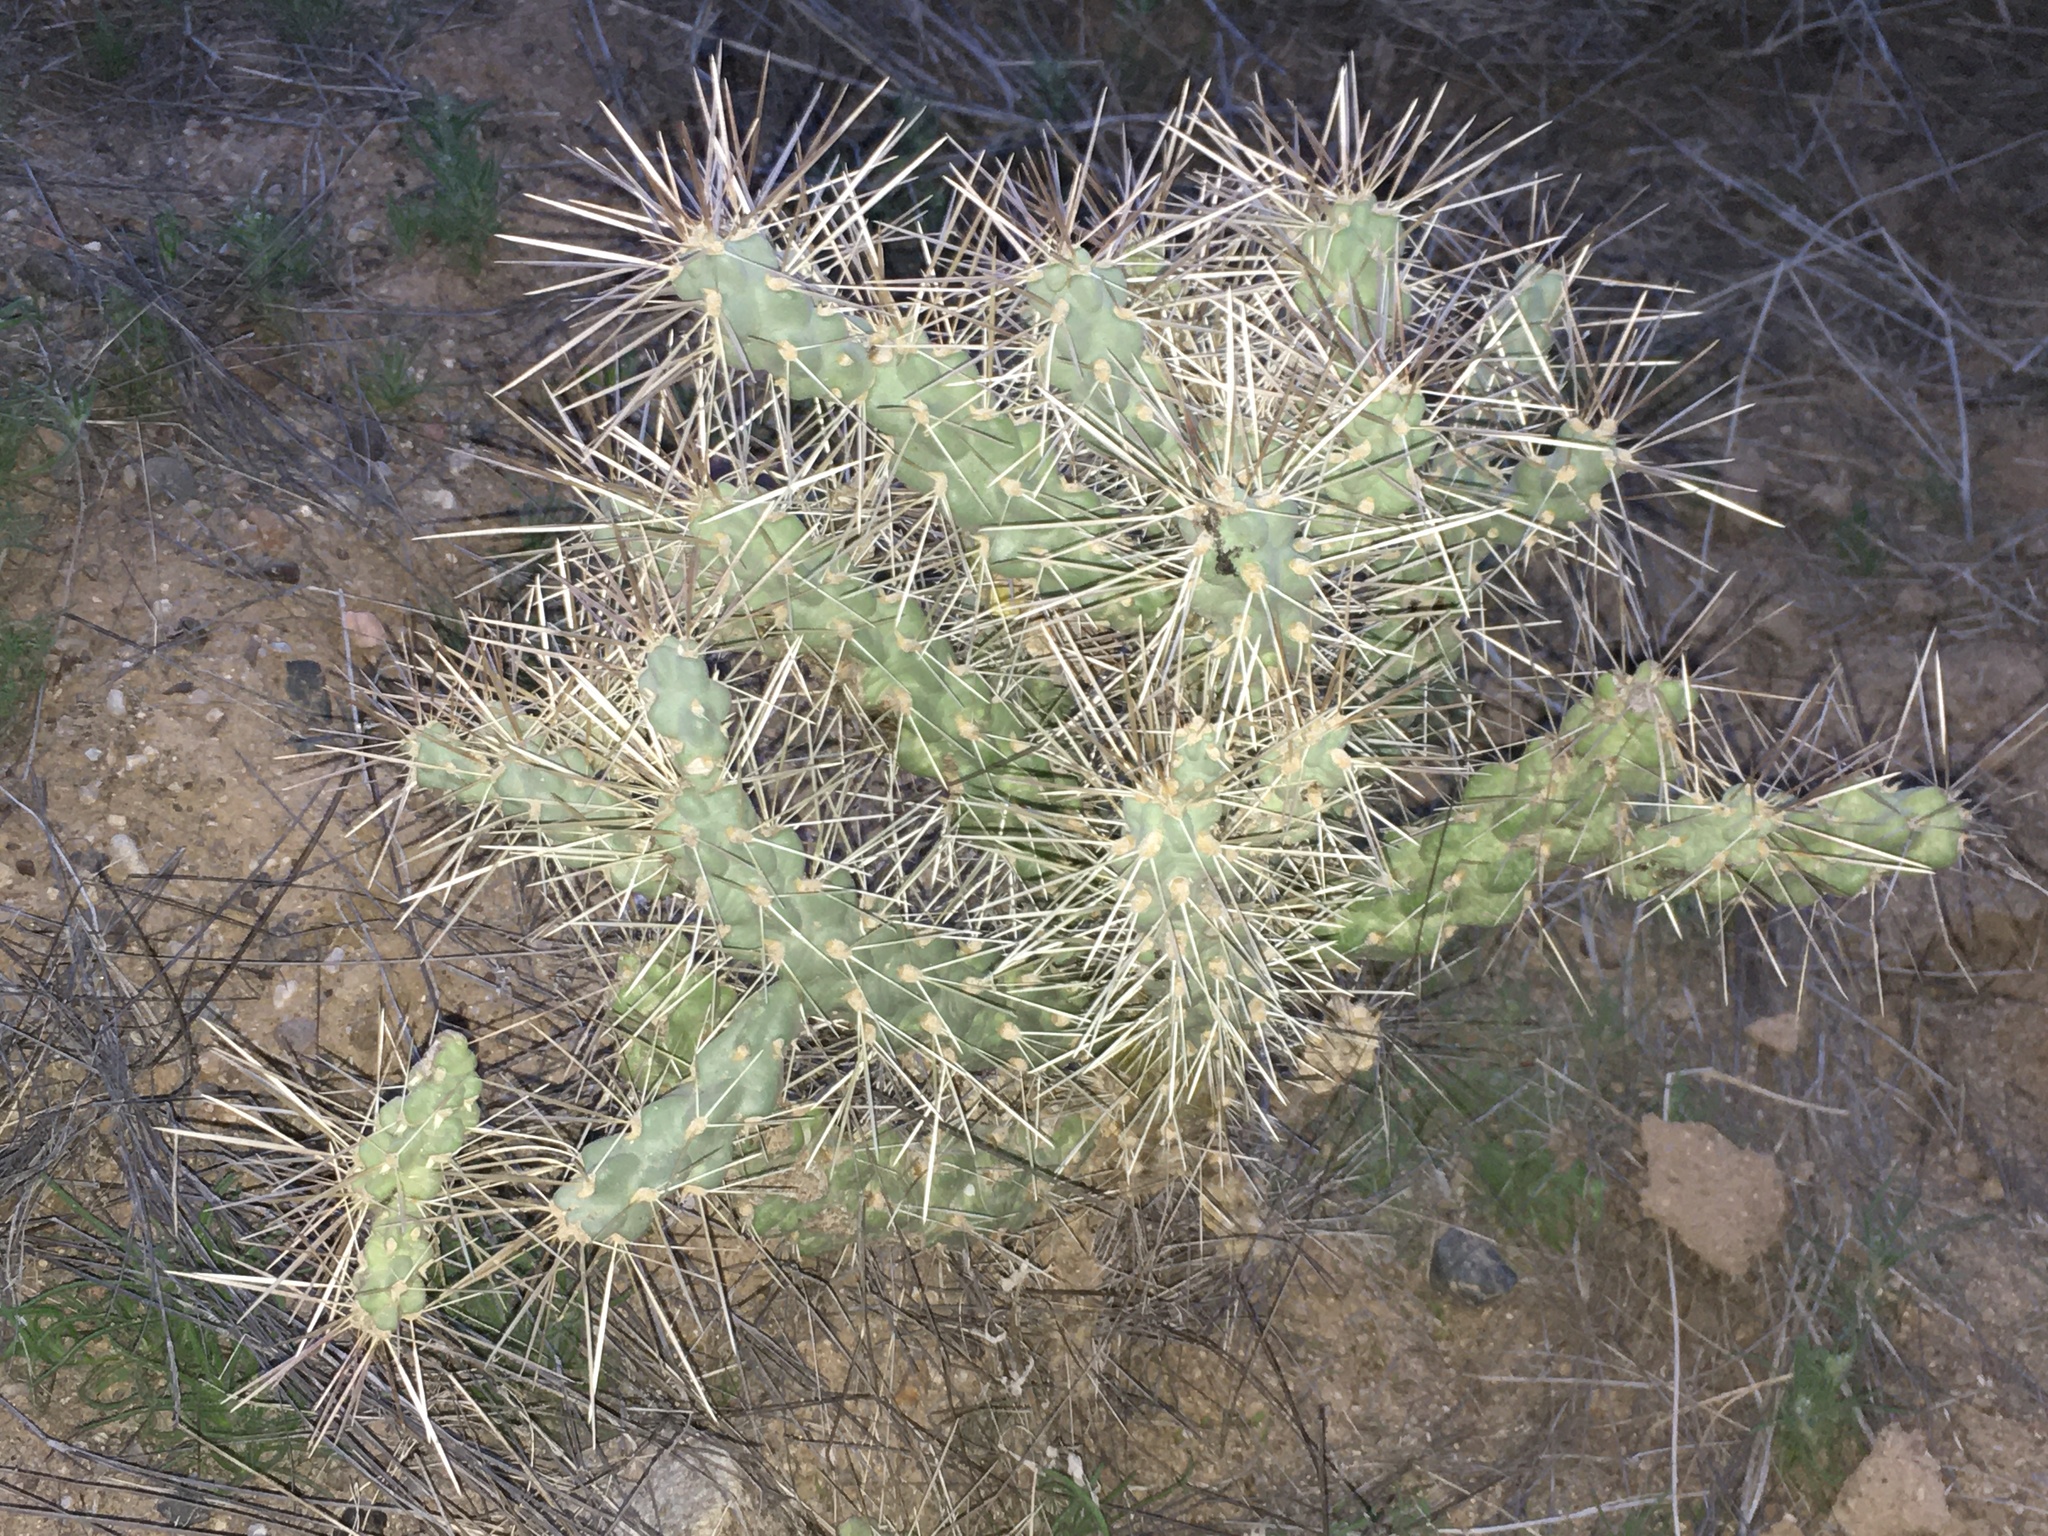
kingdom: Plantae
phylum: Tracheophyta
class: Magnoliopsida
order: Caryophyllales
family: Cactaceae
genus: Cylindropuntia
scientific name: Cylindropuntia fulgida
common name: Jumping cholla
